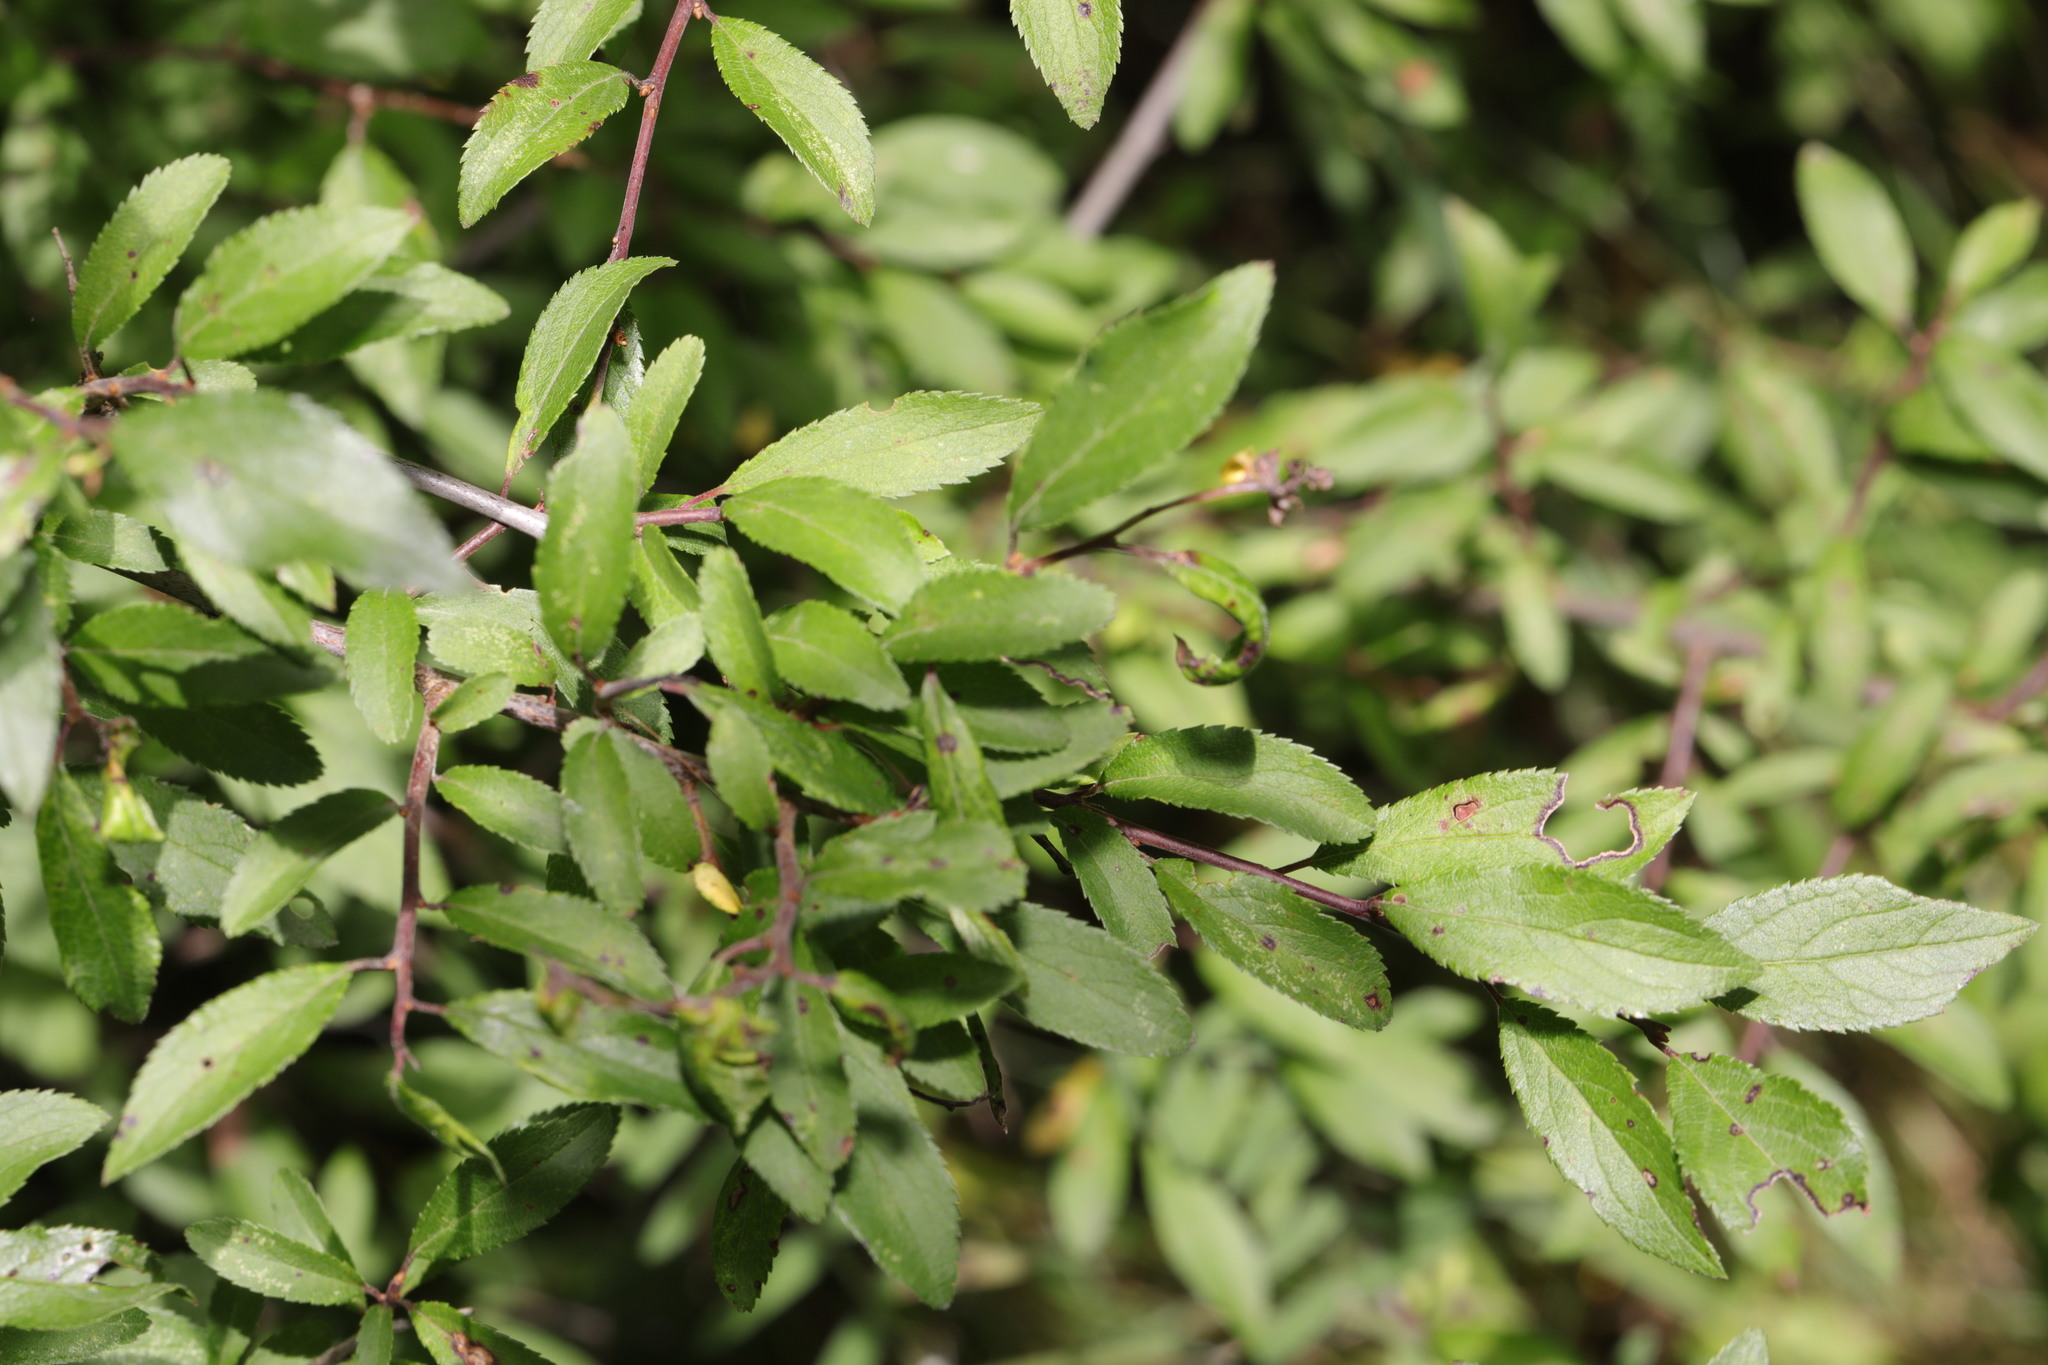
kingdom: Plantae
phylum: Tracheophyta
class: Magnoliopsida
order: Rosales
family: Rosaceae
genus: Prunus
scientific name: Prunus spinosa
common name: Blackthorn
